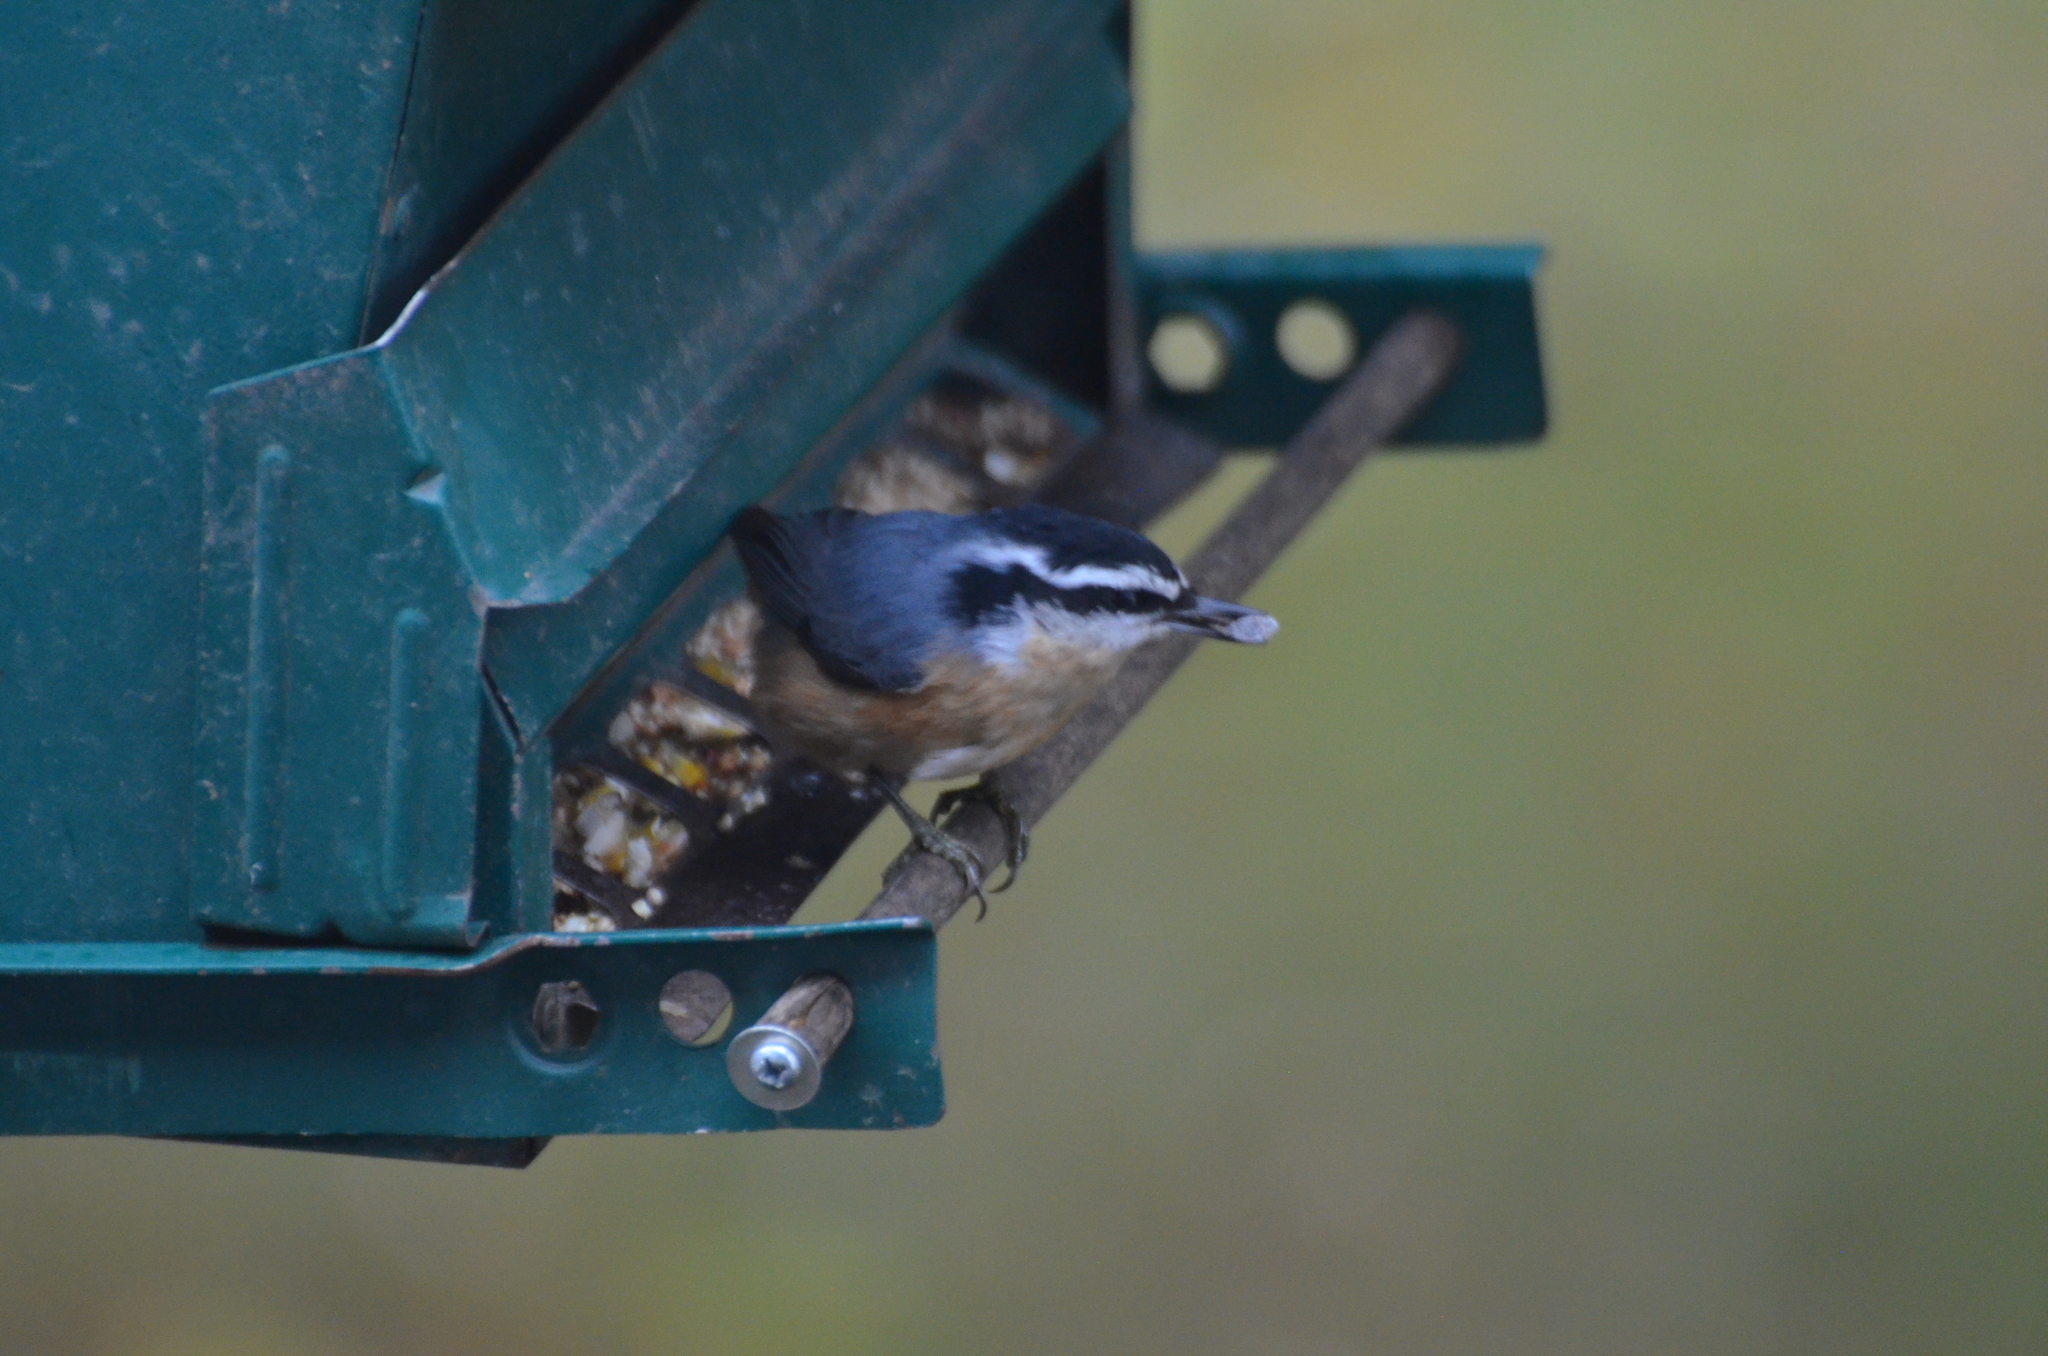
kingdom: Animalia
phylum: Chordata
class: Aves
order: Passeriformes
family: Sittidae
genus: Sitta
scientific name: Sitta canadensis
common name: Red-breasted nuthatch
